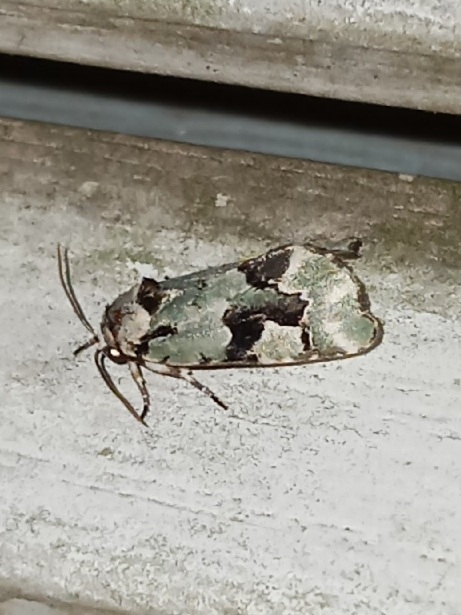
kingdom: Animalia
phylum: Arthropoda
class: Insecta
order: Lepidoptera
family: Noctuidae
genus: Emarginea
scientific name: Emarginea percara
